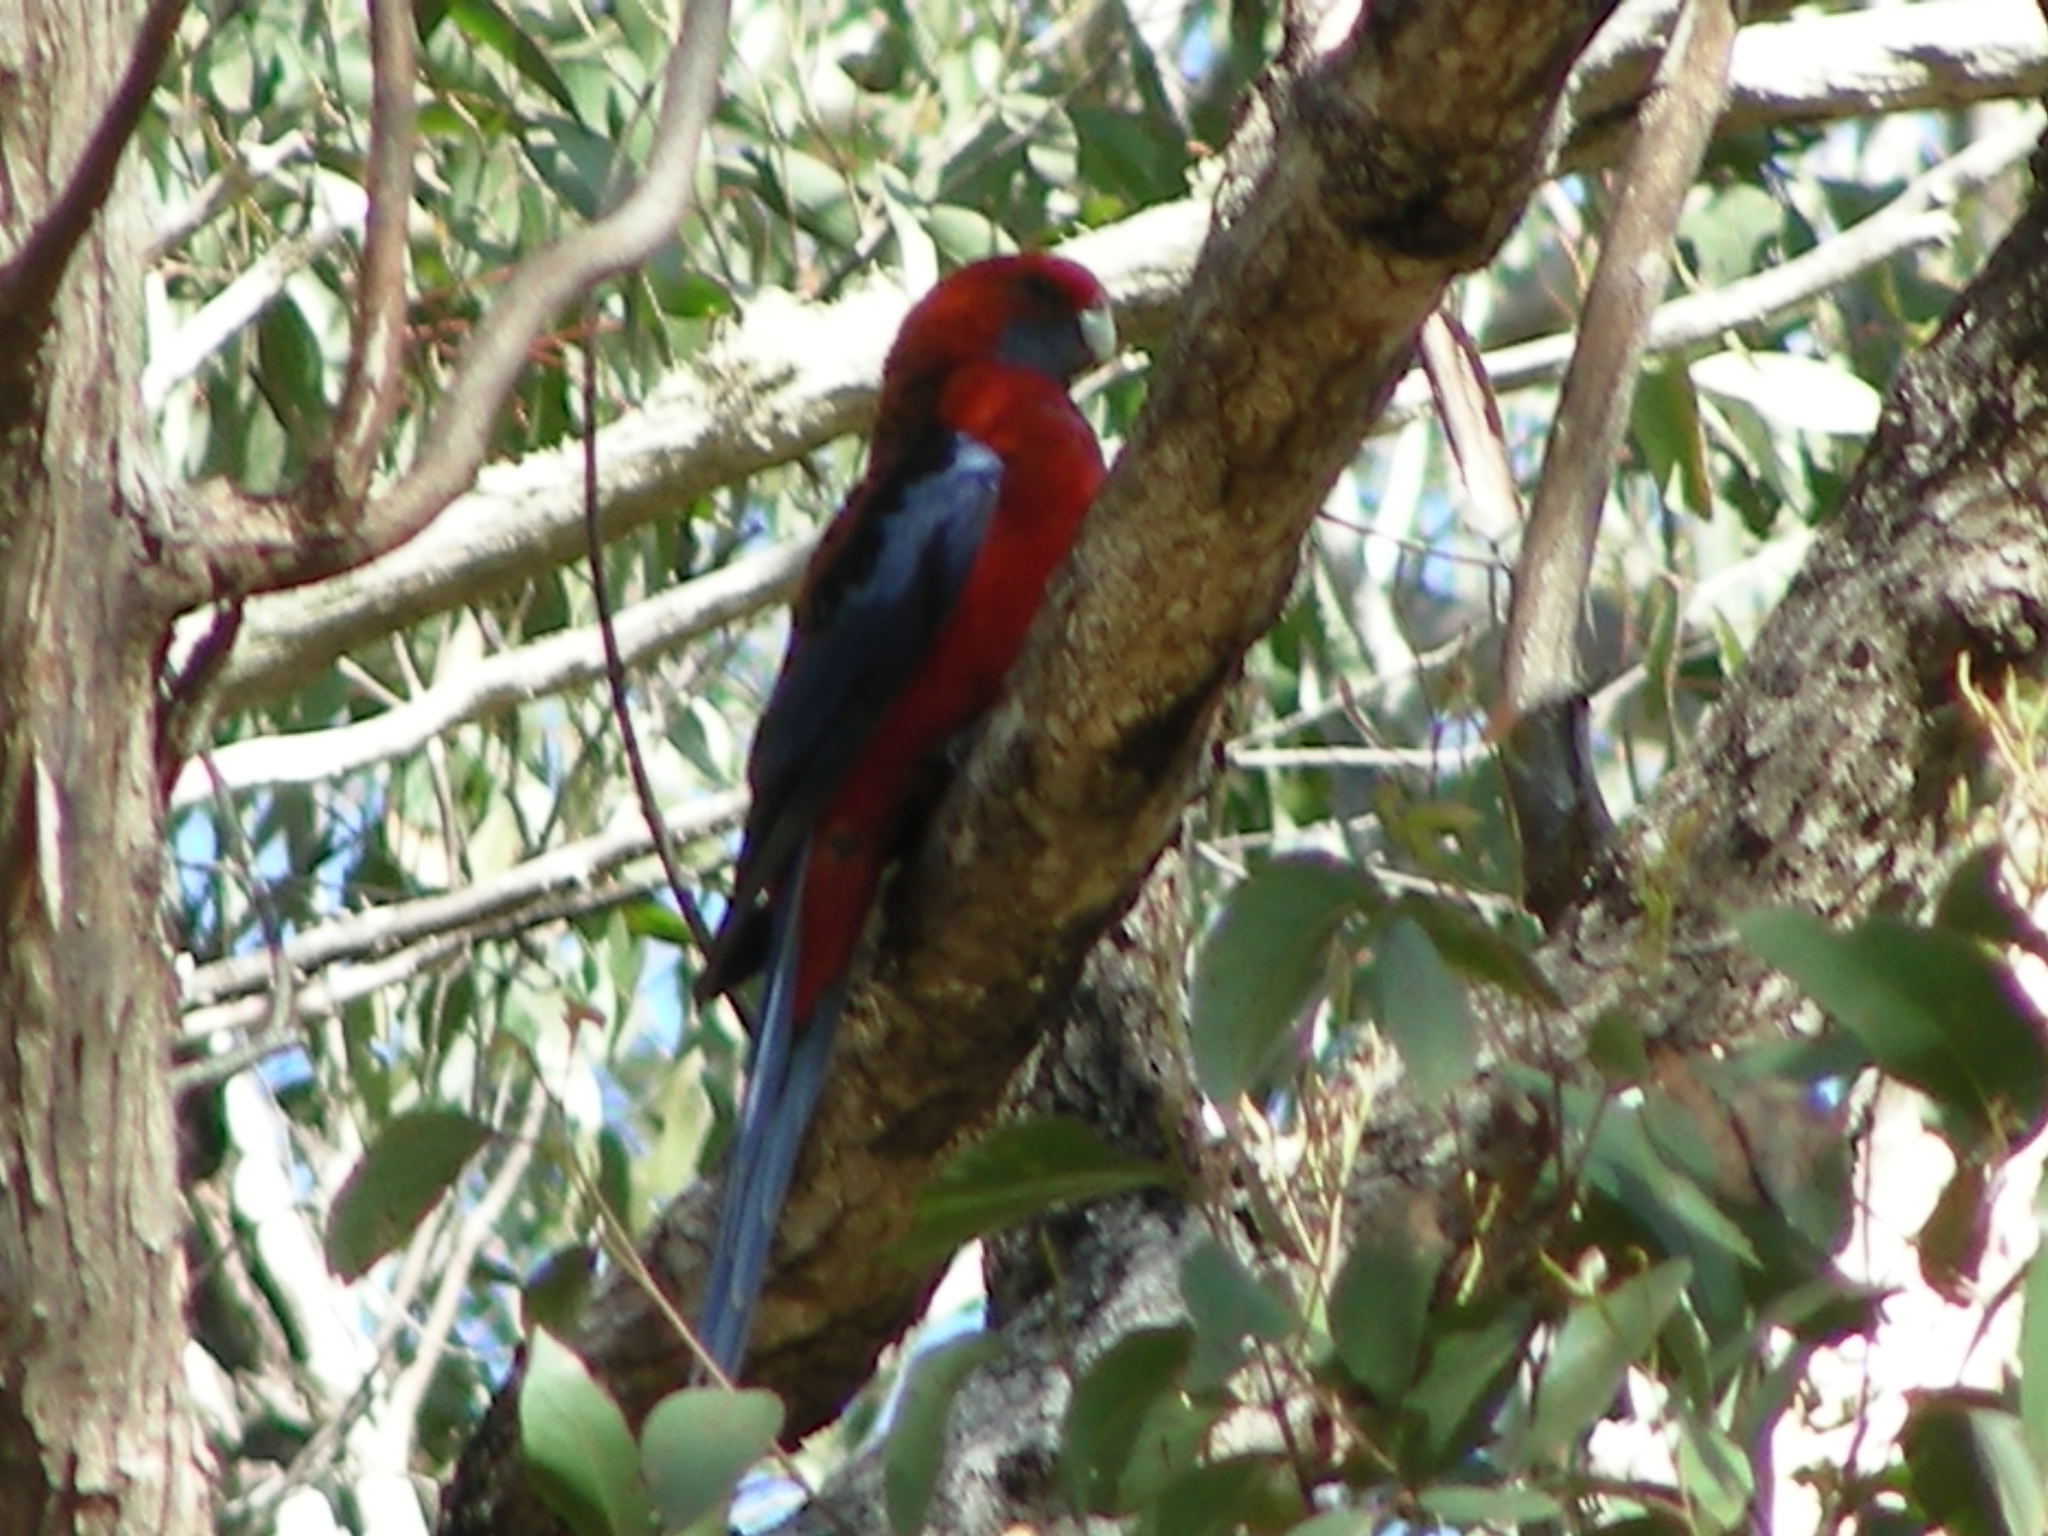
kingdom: Animalia
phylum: Chordata
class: Aves
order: Psittaciformes
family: Psittacidae
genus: Platycercus
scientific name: Platycercus elegans
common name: Crimson rosella
